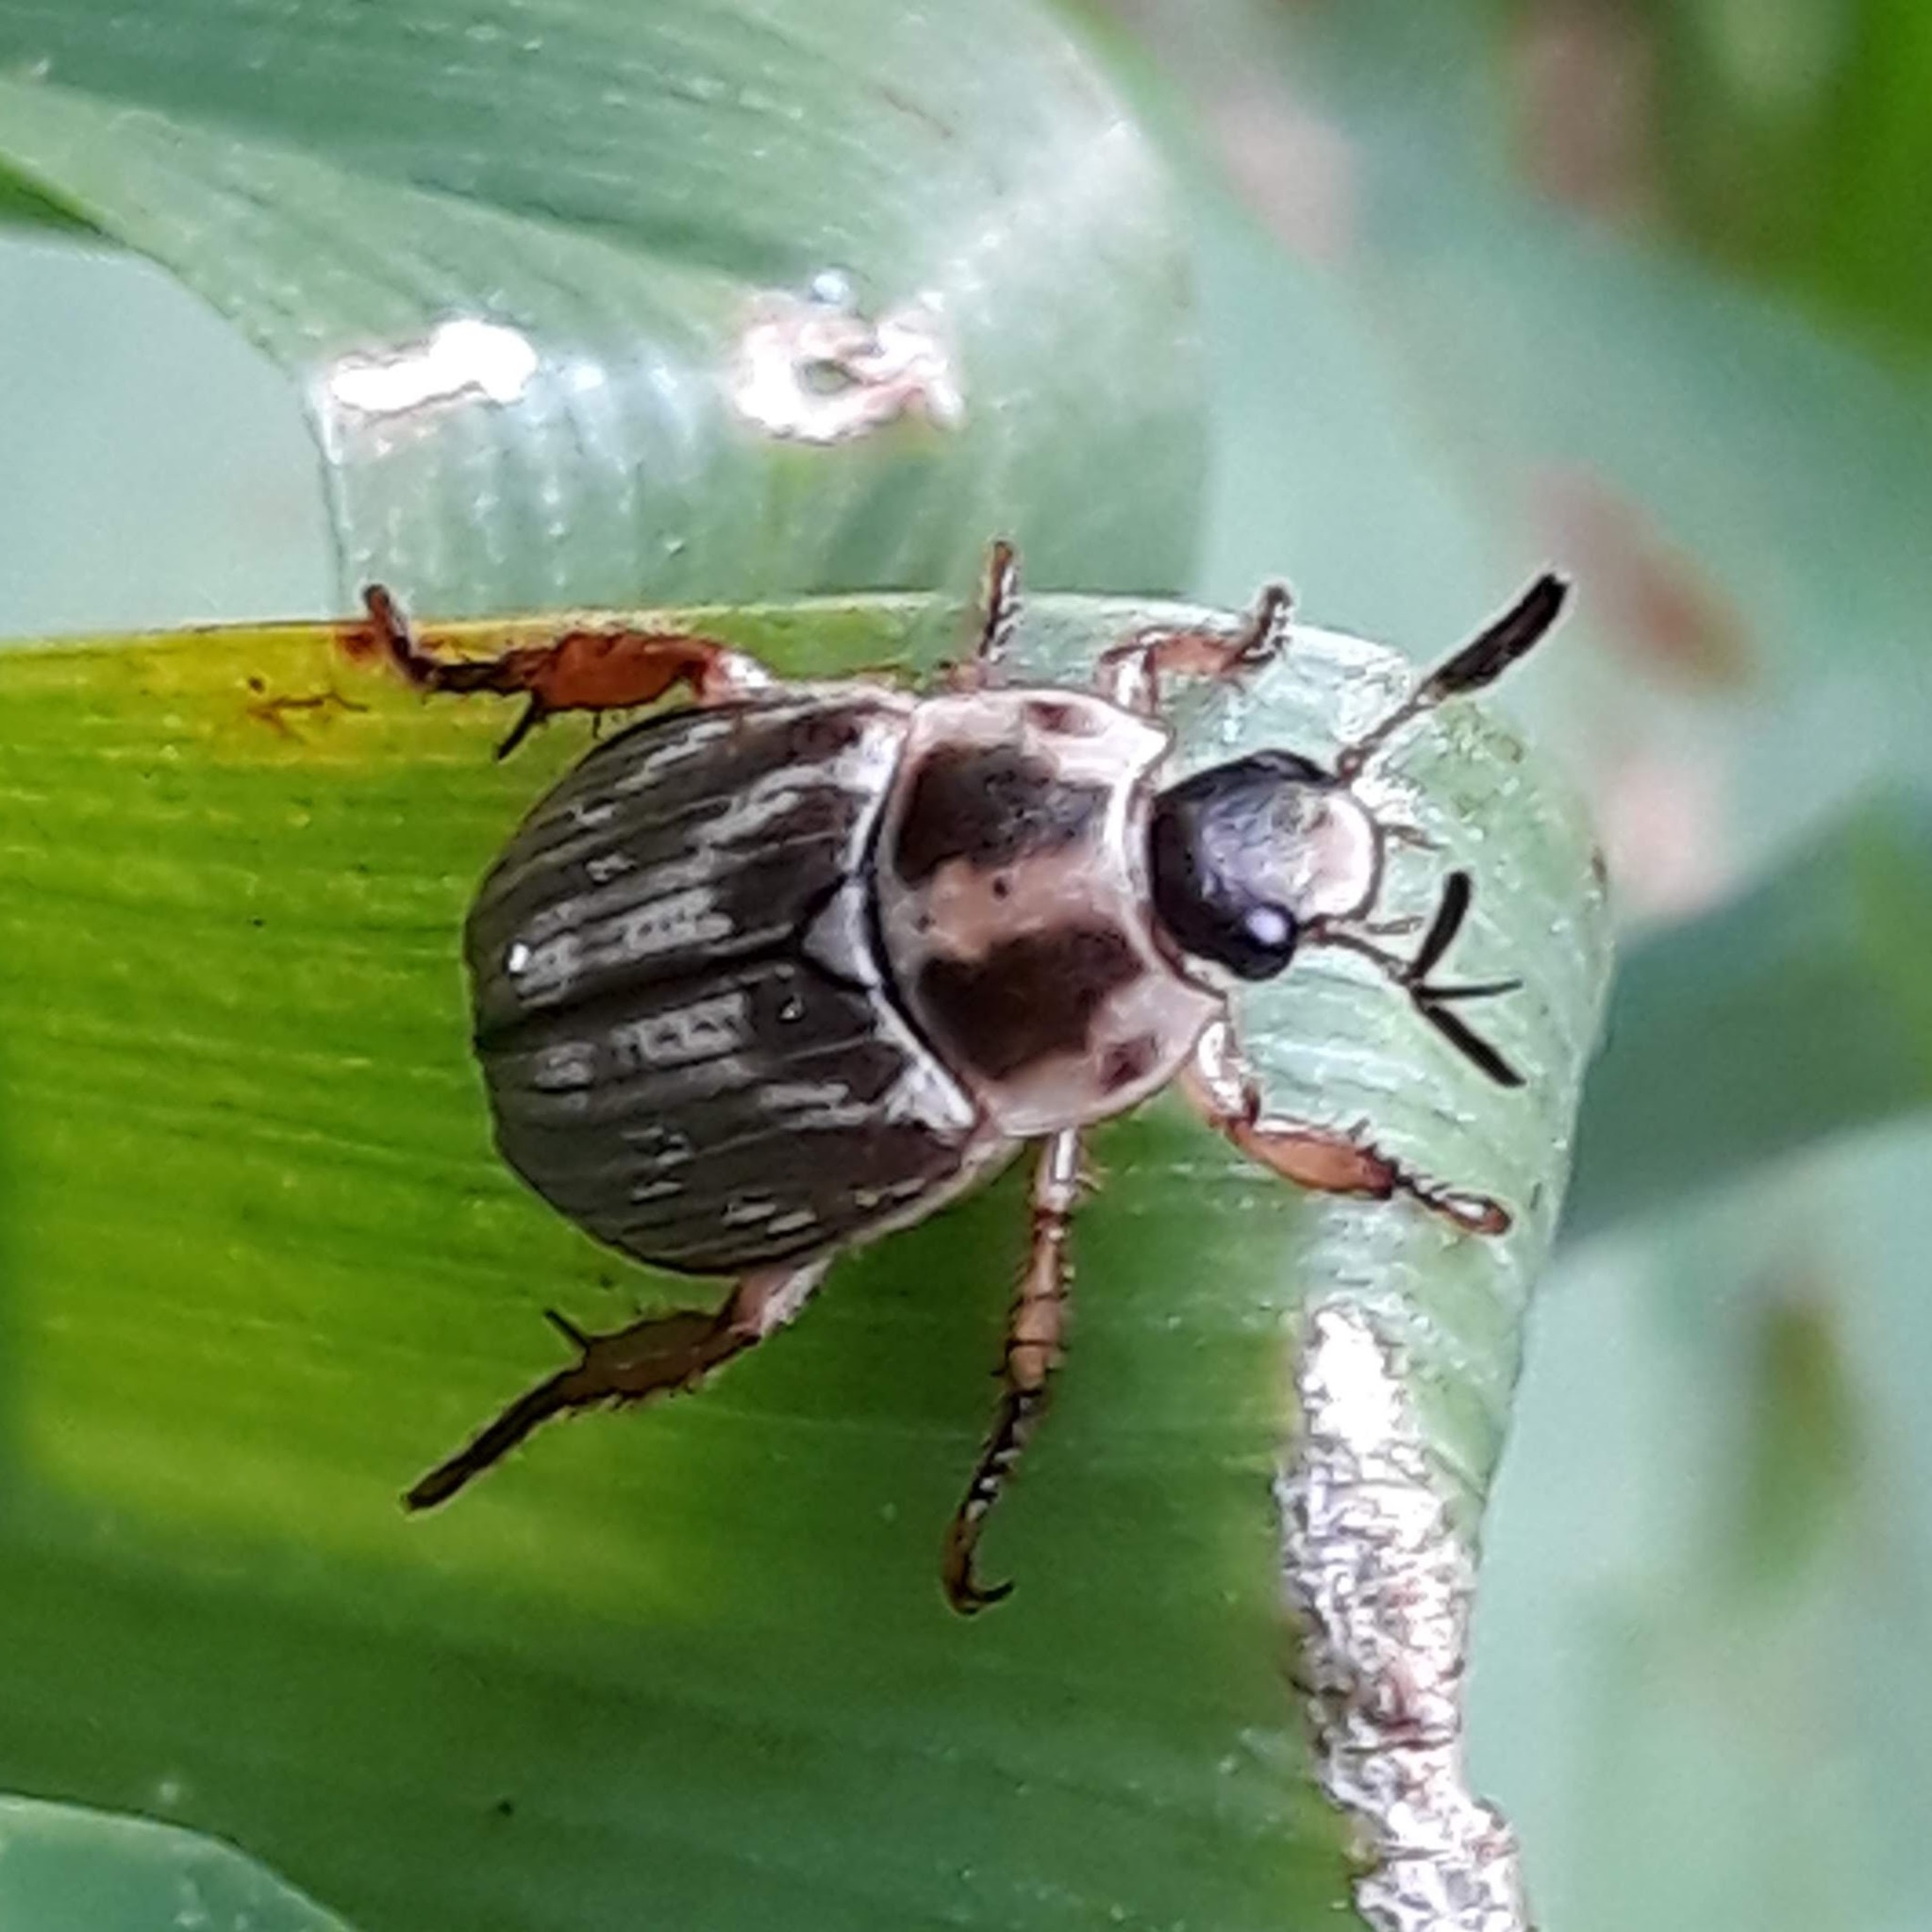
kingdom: Animalia
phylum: Arthropoda
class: Insecta
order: Coleoptera
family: Scarabaeidae
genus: Exomala
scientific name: Exomala orientalis
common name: Oriental beetle
